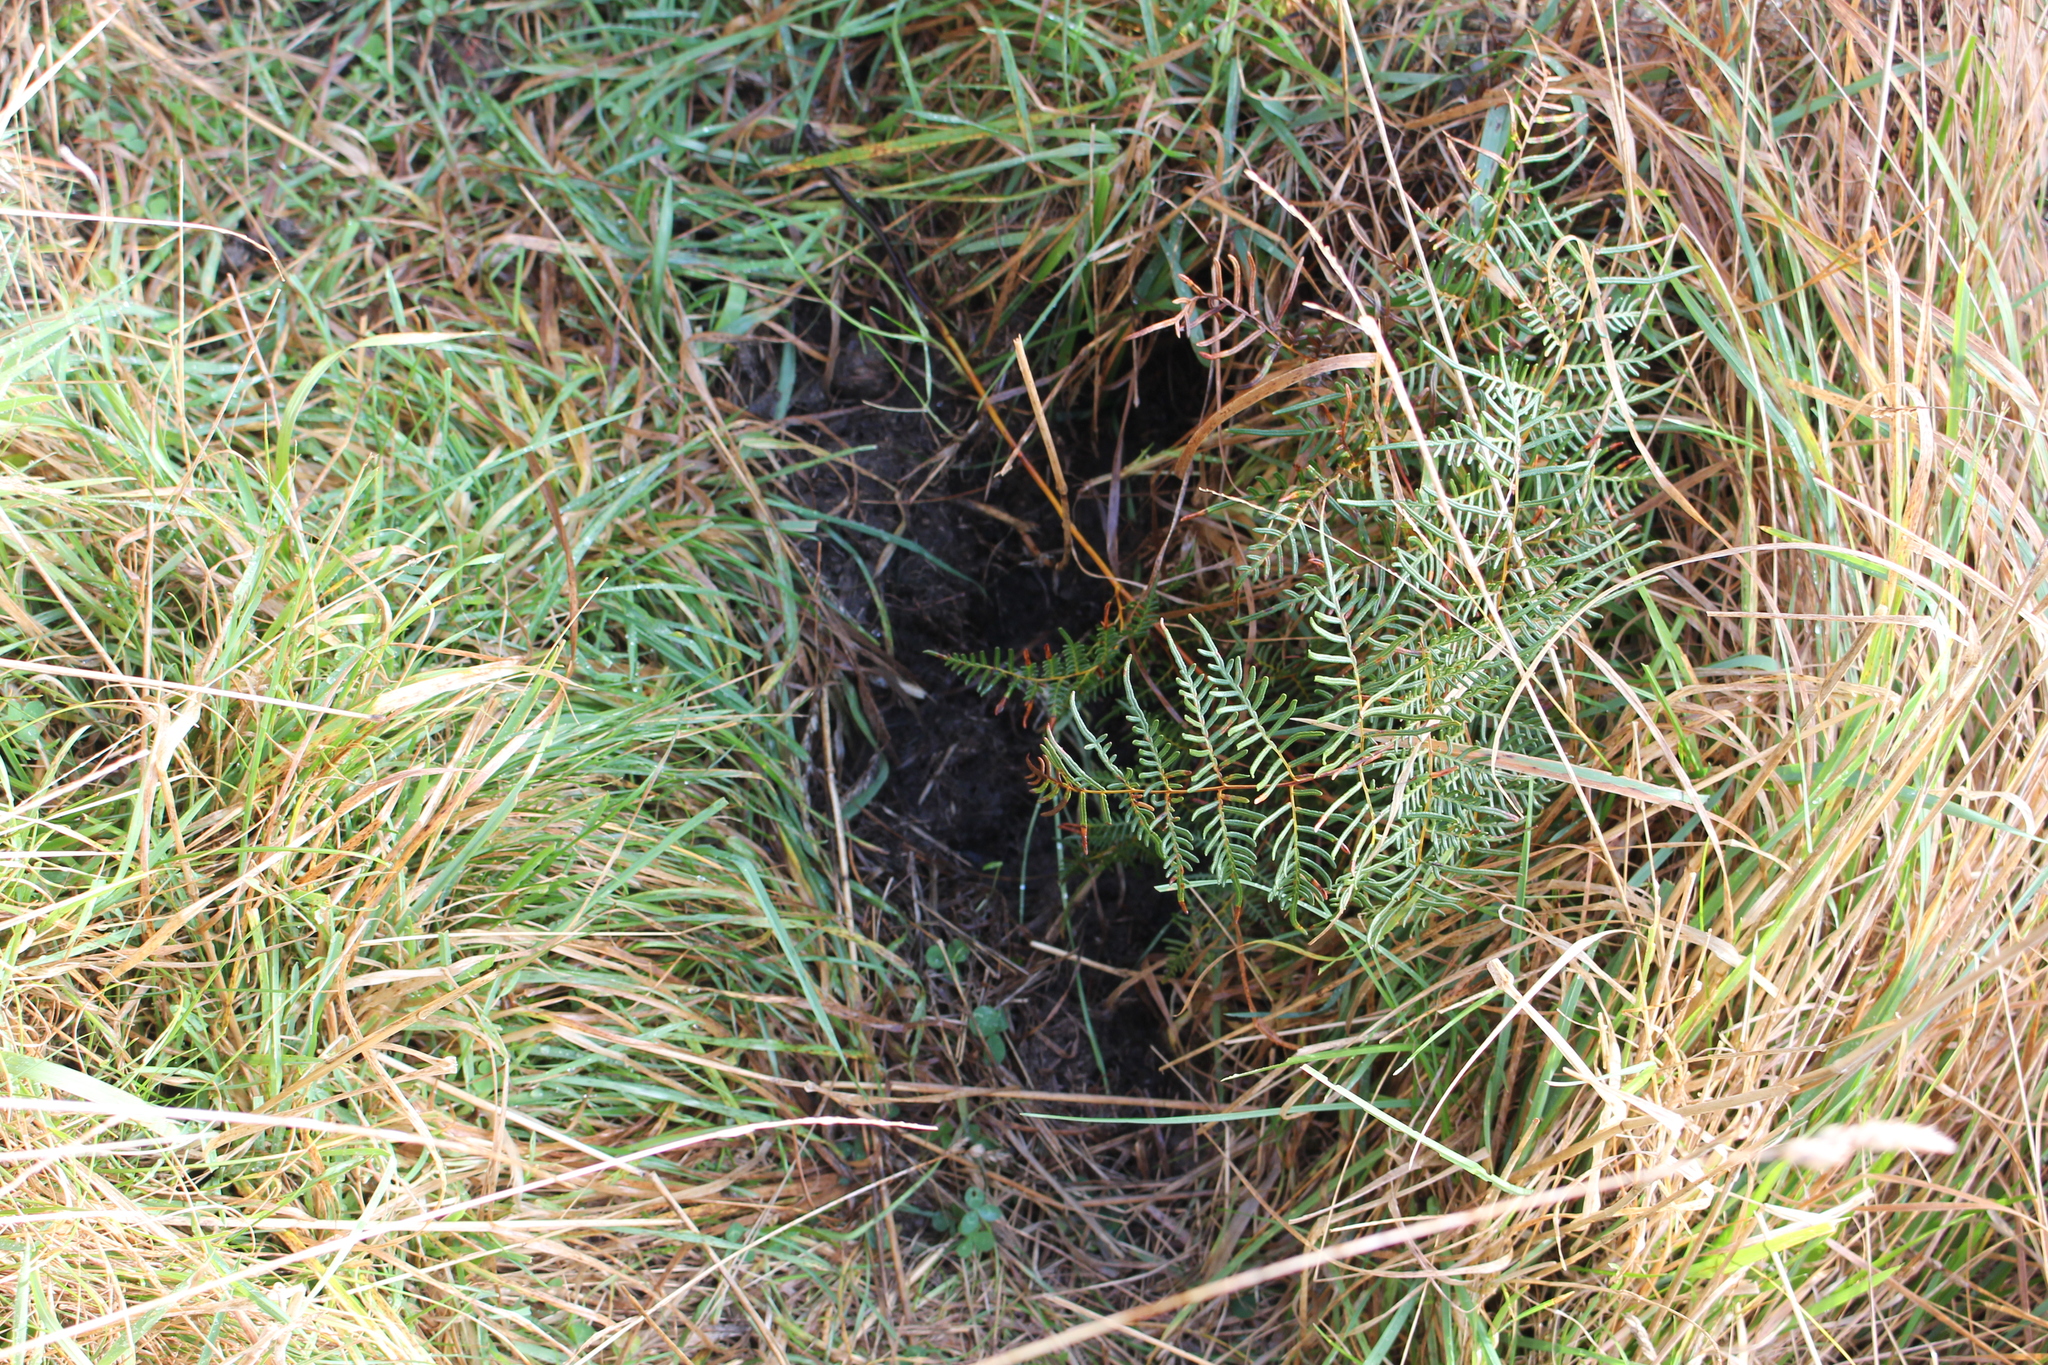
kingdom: Animalia
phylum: Chordata
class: Mammalia
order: Artiodactyla
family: Suidae
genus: Sus
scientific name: Sus scrofa
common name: Wild boar
